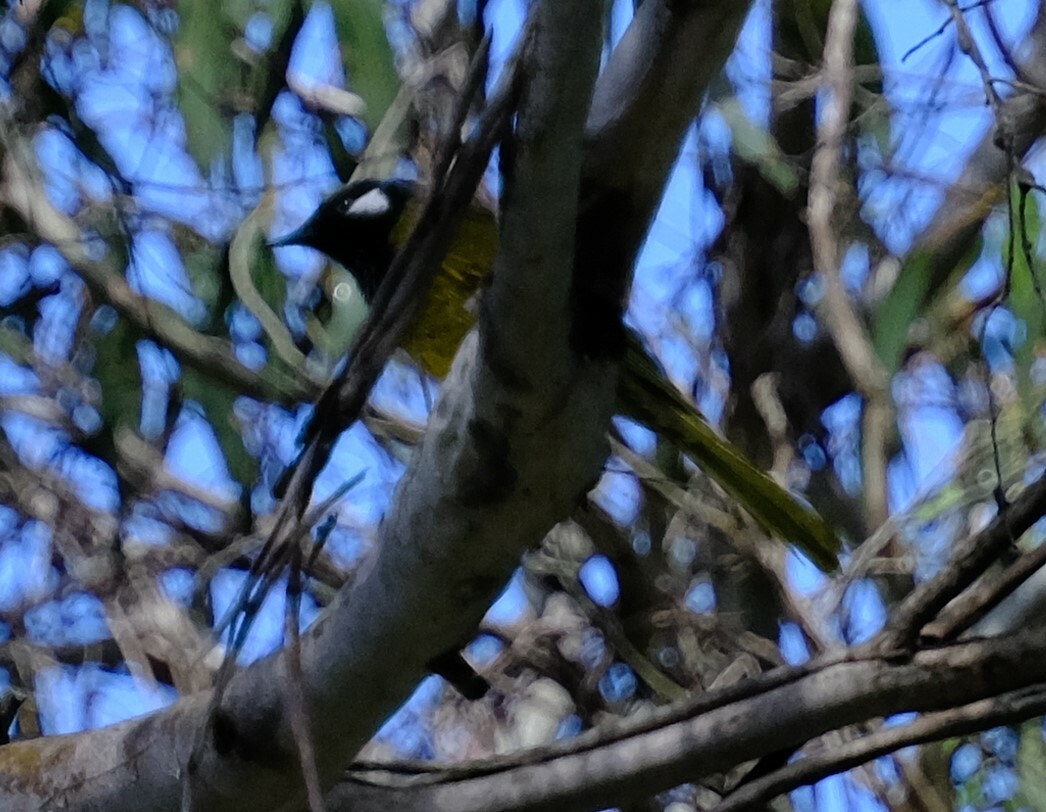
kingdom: Animalia
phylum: Chordata
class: Aves
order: Passeriformes
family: Meliphagidae
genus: Nesoptilotis
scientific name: Nesoptilotis leucotis
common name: White-eared honeyeater
